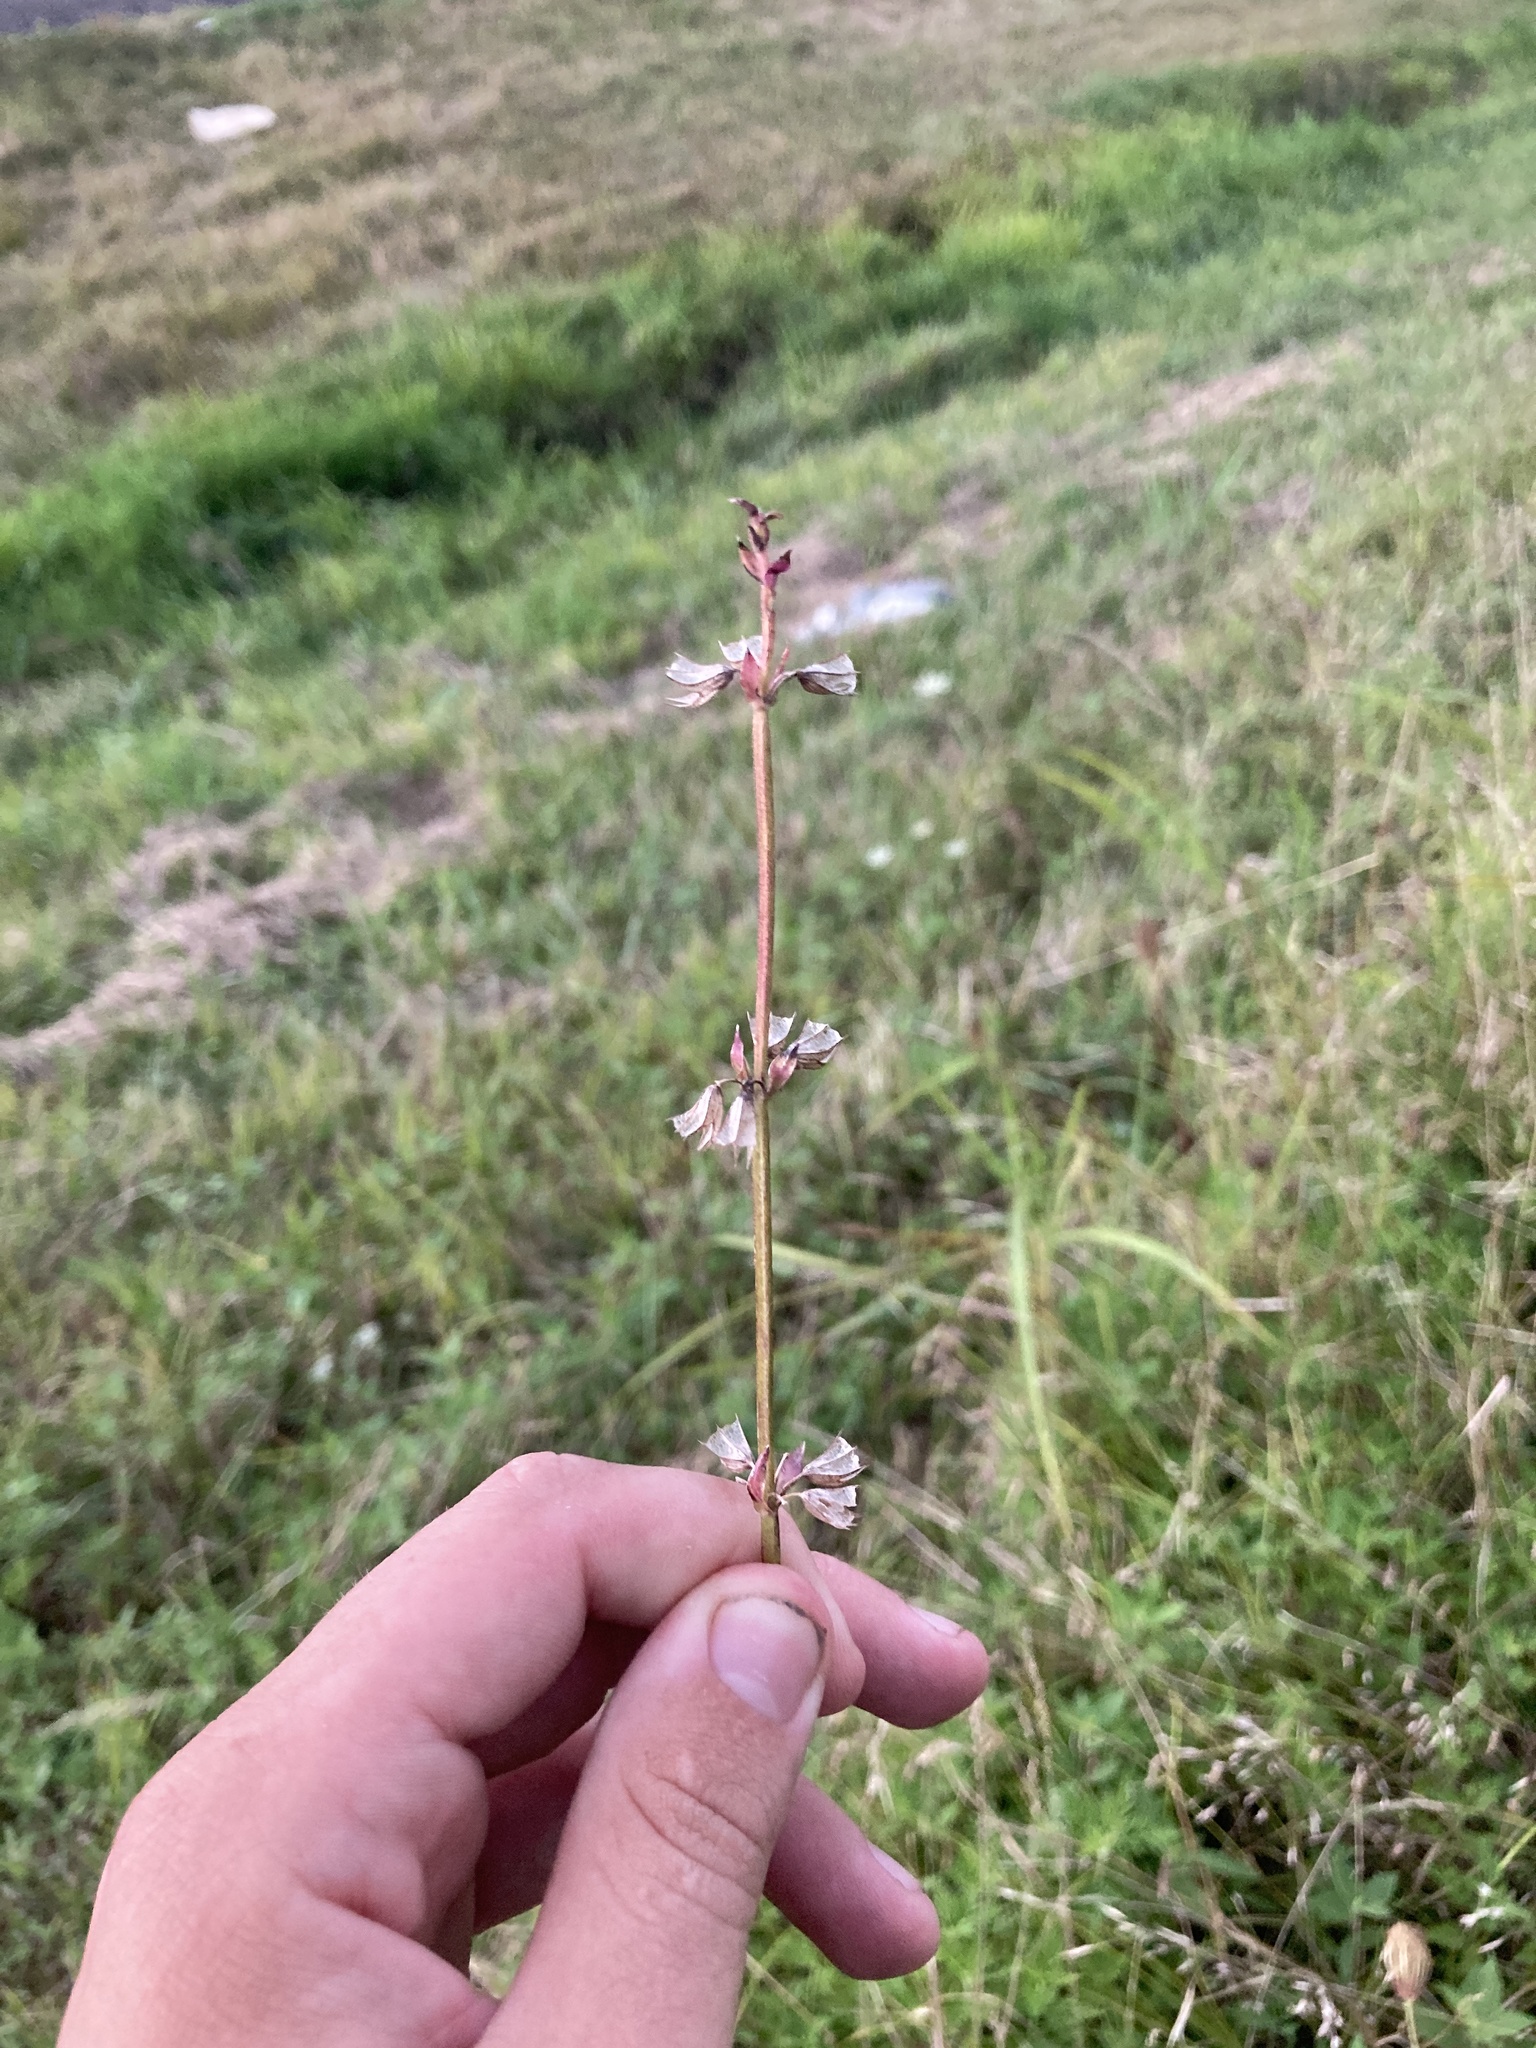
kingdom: Plantae
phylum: Tracheophyta
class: Magnoliopsida
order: Lamiales
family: Lamiaceae
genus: Salvia
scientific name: Salvia lyrata
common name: Cancerweed
